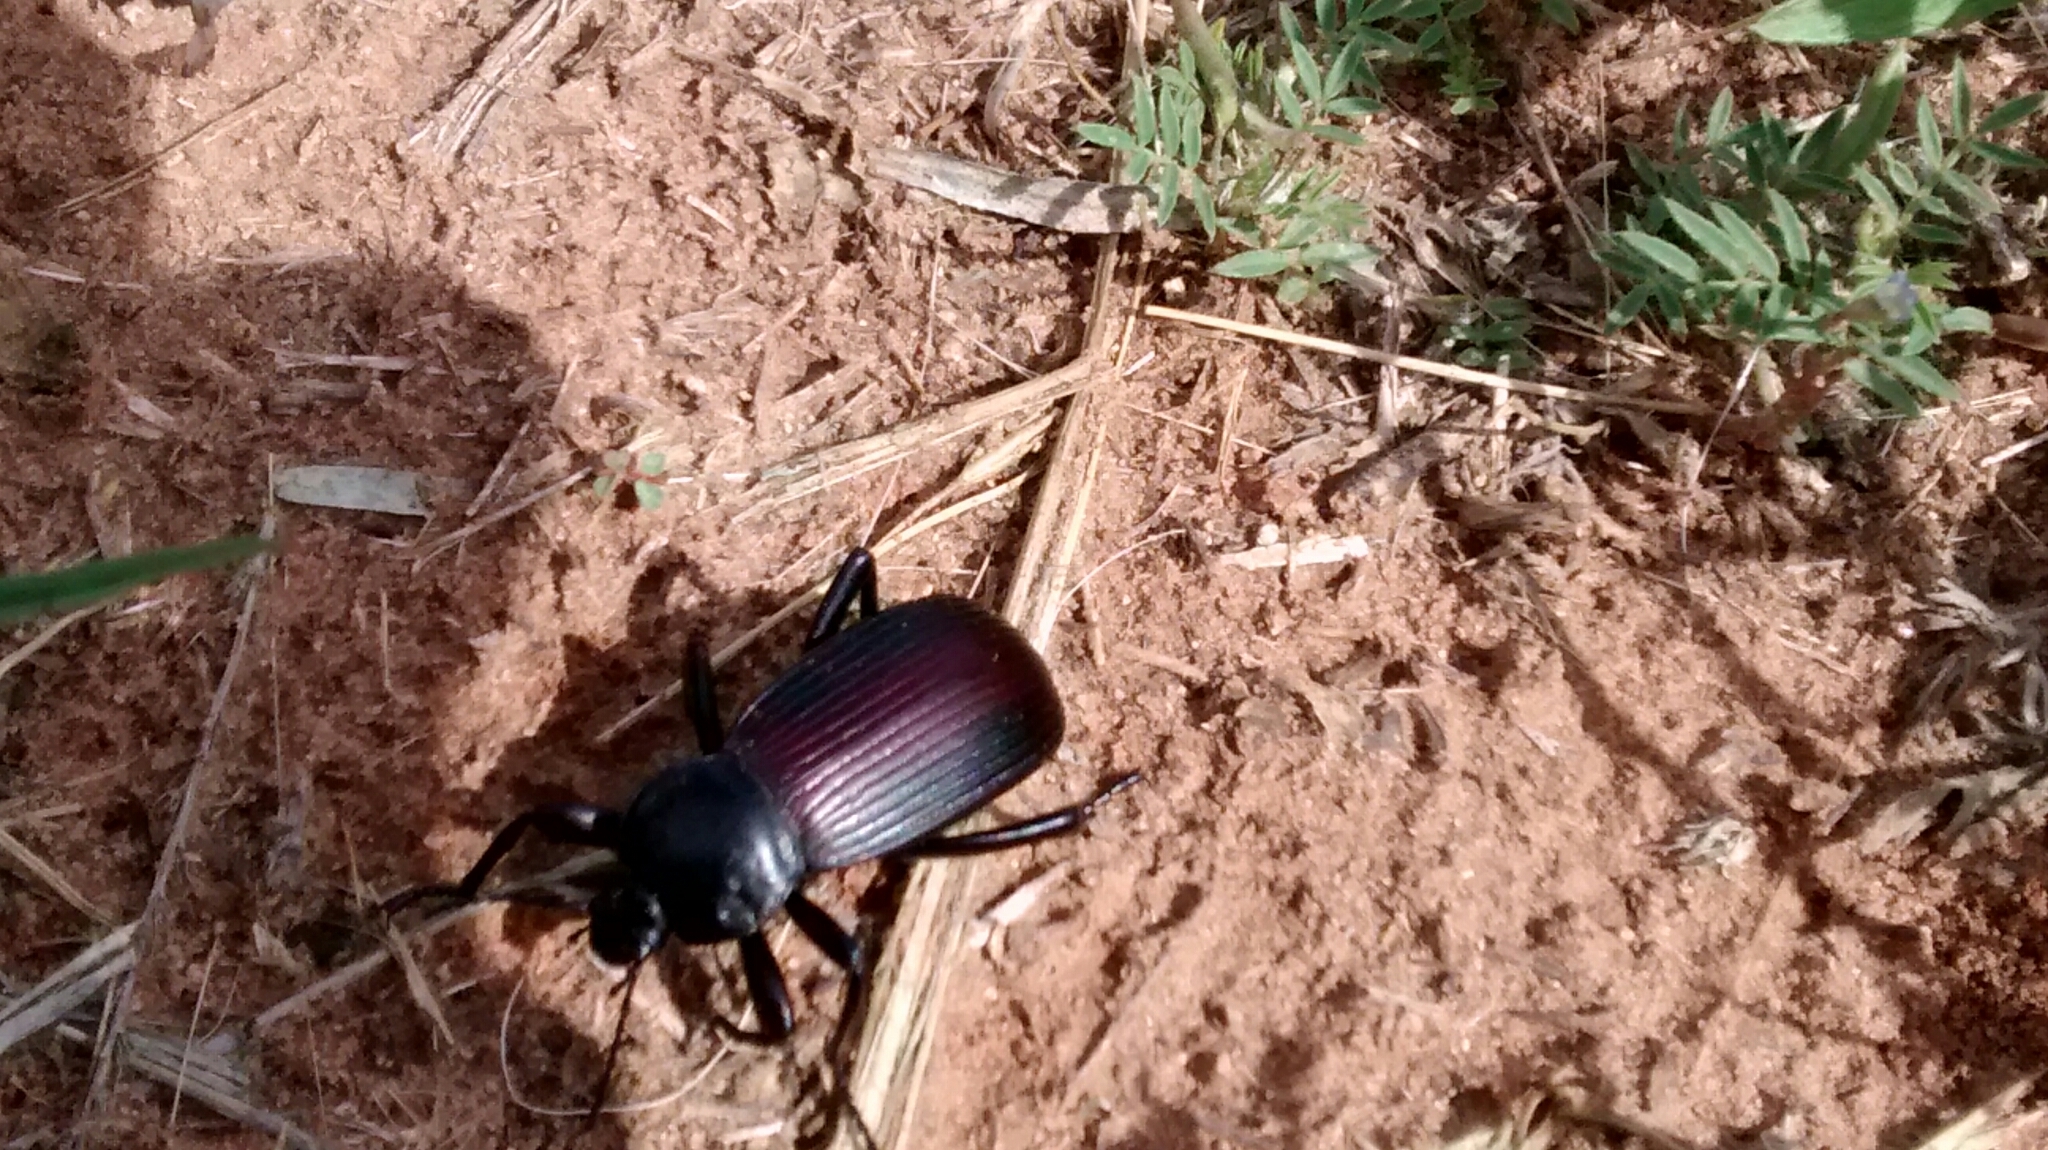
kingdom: Animalia
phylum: Arthropoda
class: Insecta
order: Coleoptera
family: Tenebrionidae
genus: Eleodes
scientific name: Eleodes acuta
